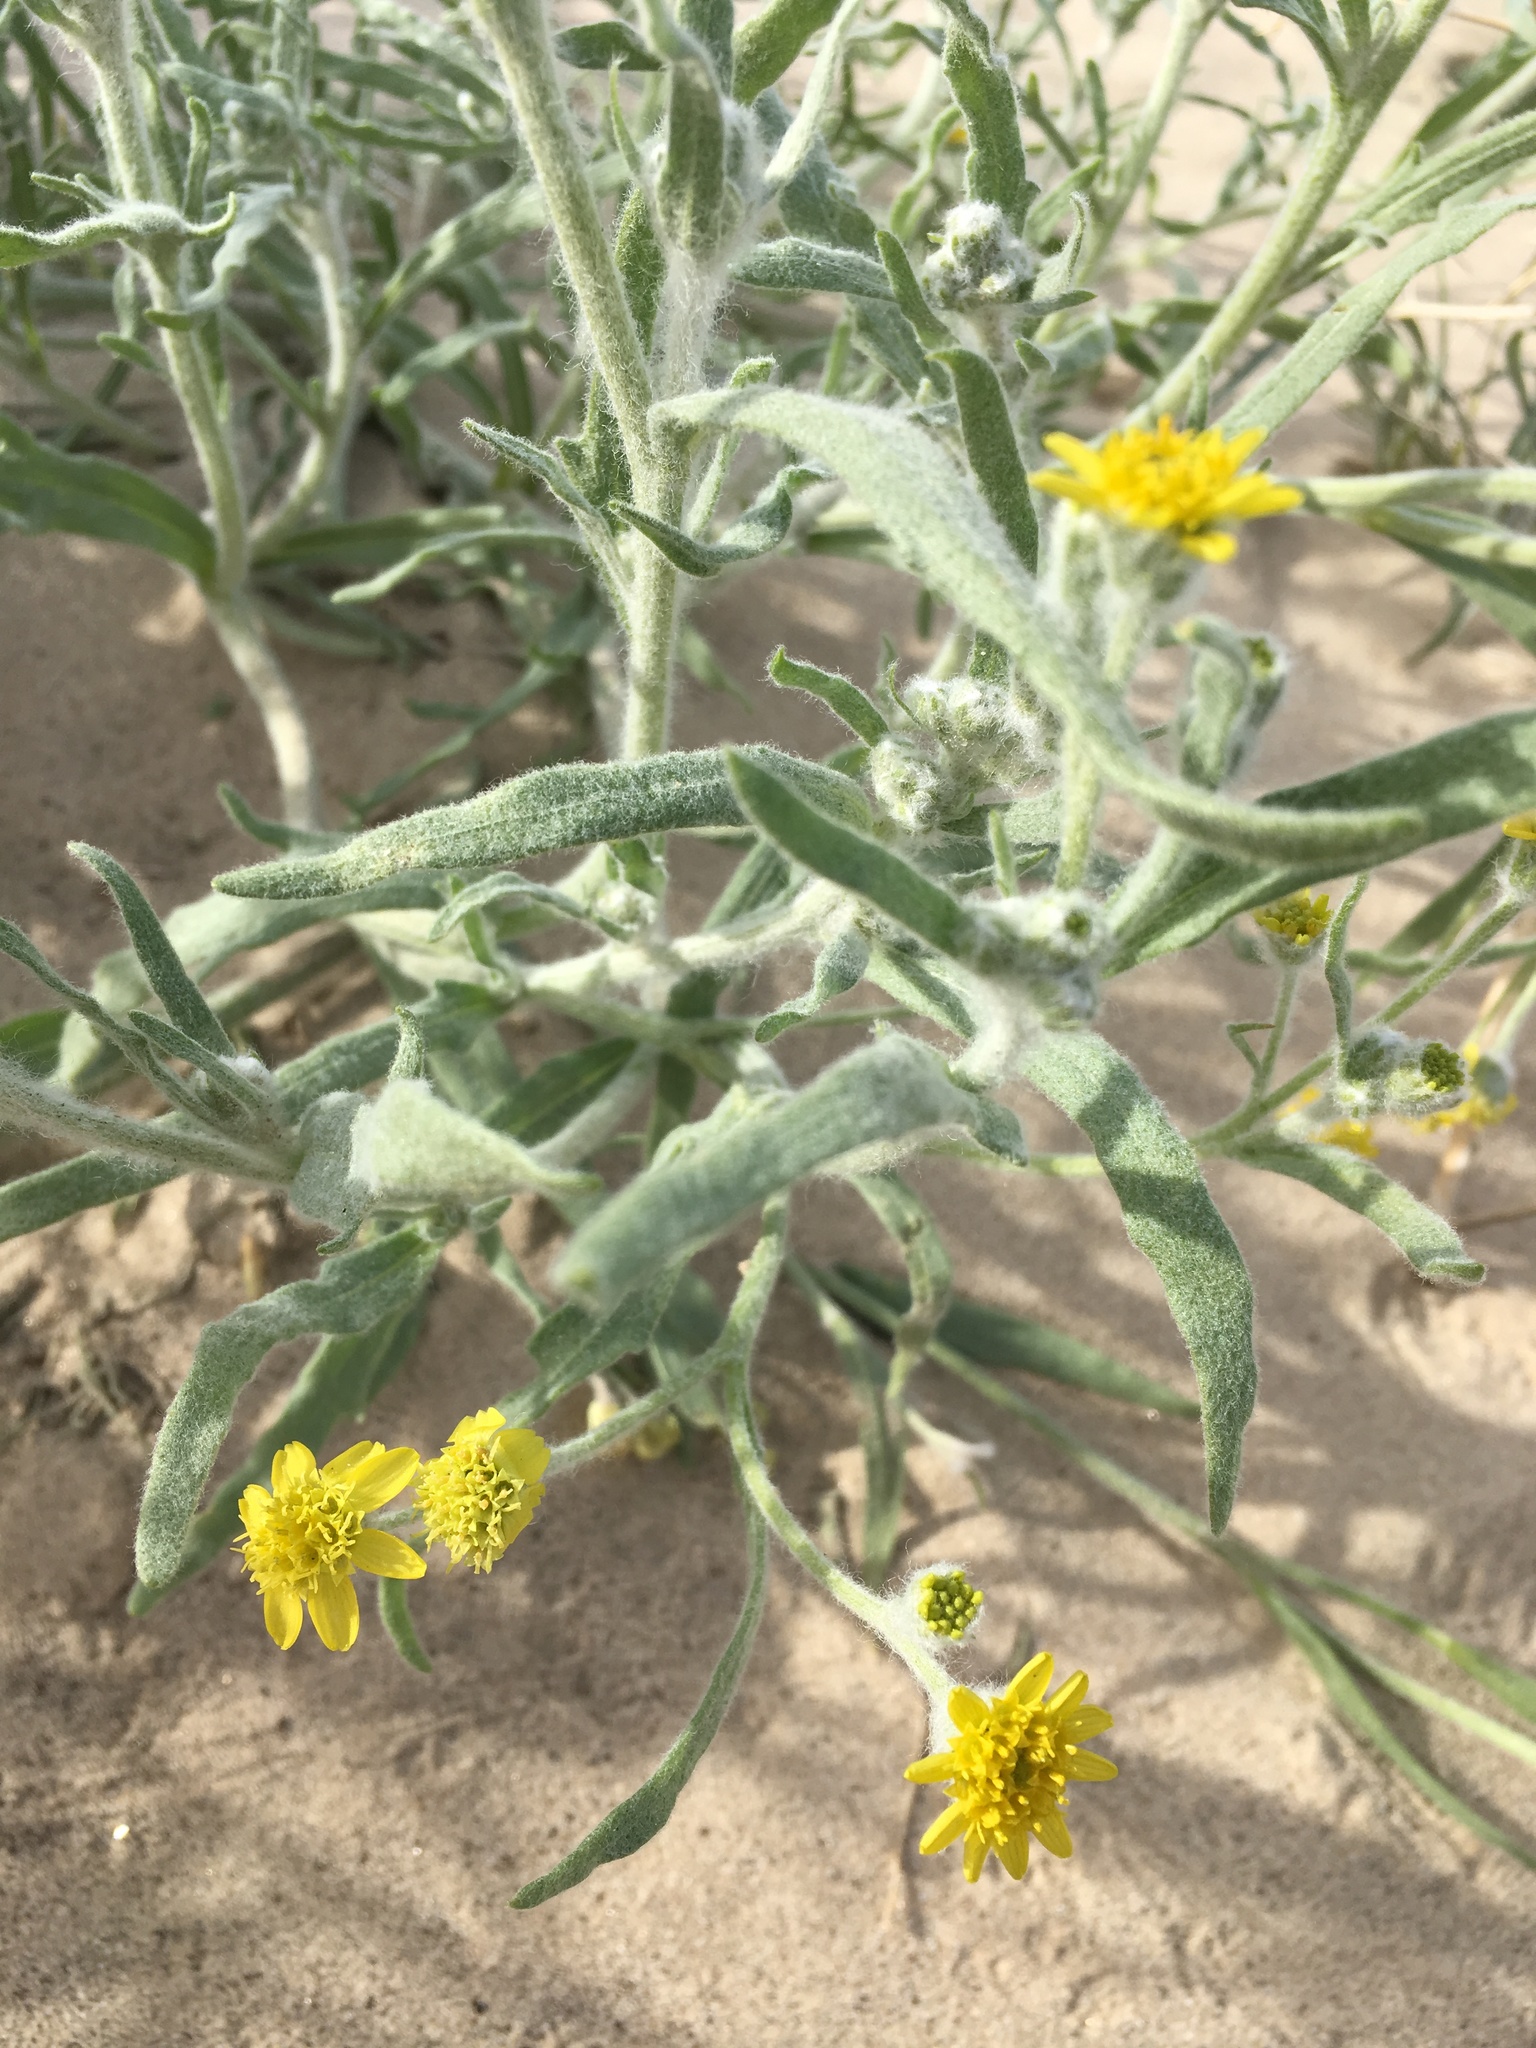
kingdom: Plantae
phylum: Tracheophyta
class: Magnoliopsida
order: Asterales
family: Asteraceae
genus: Baileya
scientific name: Baileya pauciradiata
